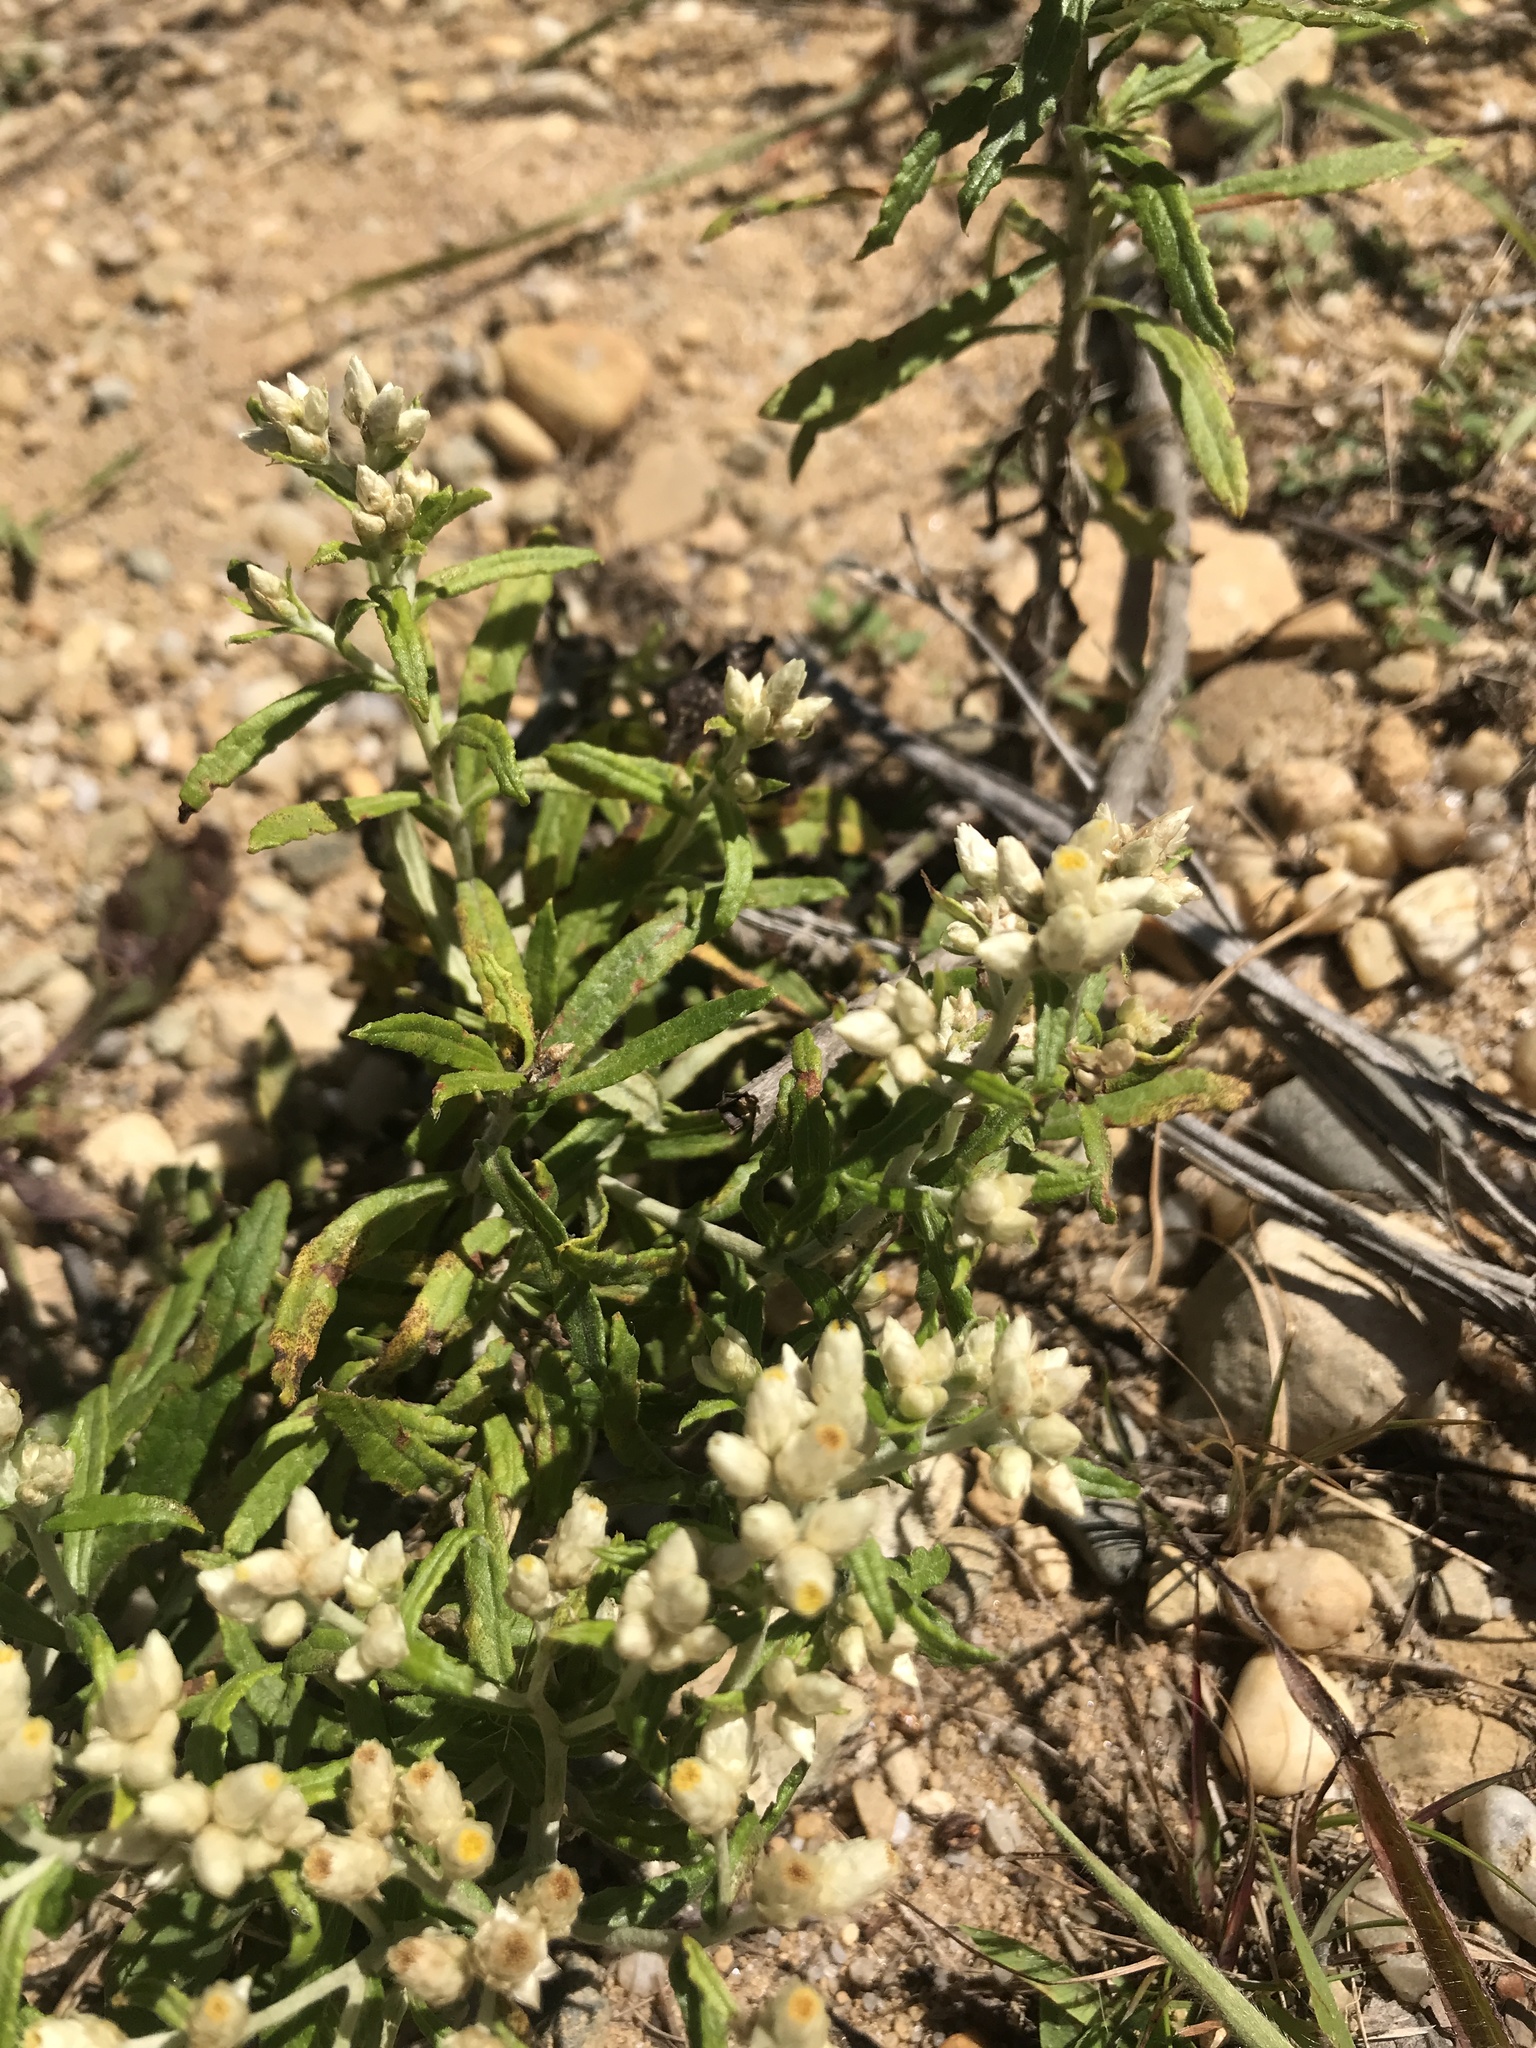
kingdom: Plantae
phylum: Tracheophyta
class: Magnoliopsida
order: Asterales
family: Asteraceae
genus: Pseudognaphalium
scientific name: Pseudognaphalium obtusifolium
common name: Eastern rabbit-tobacco
